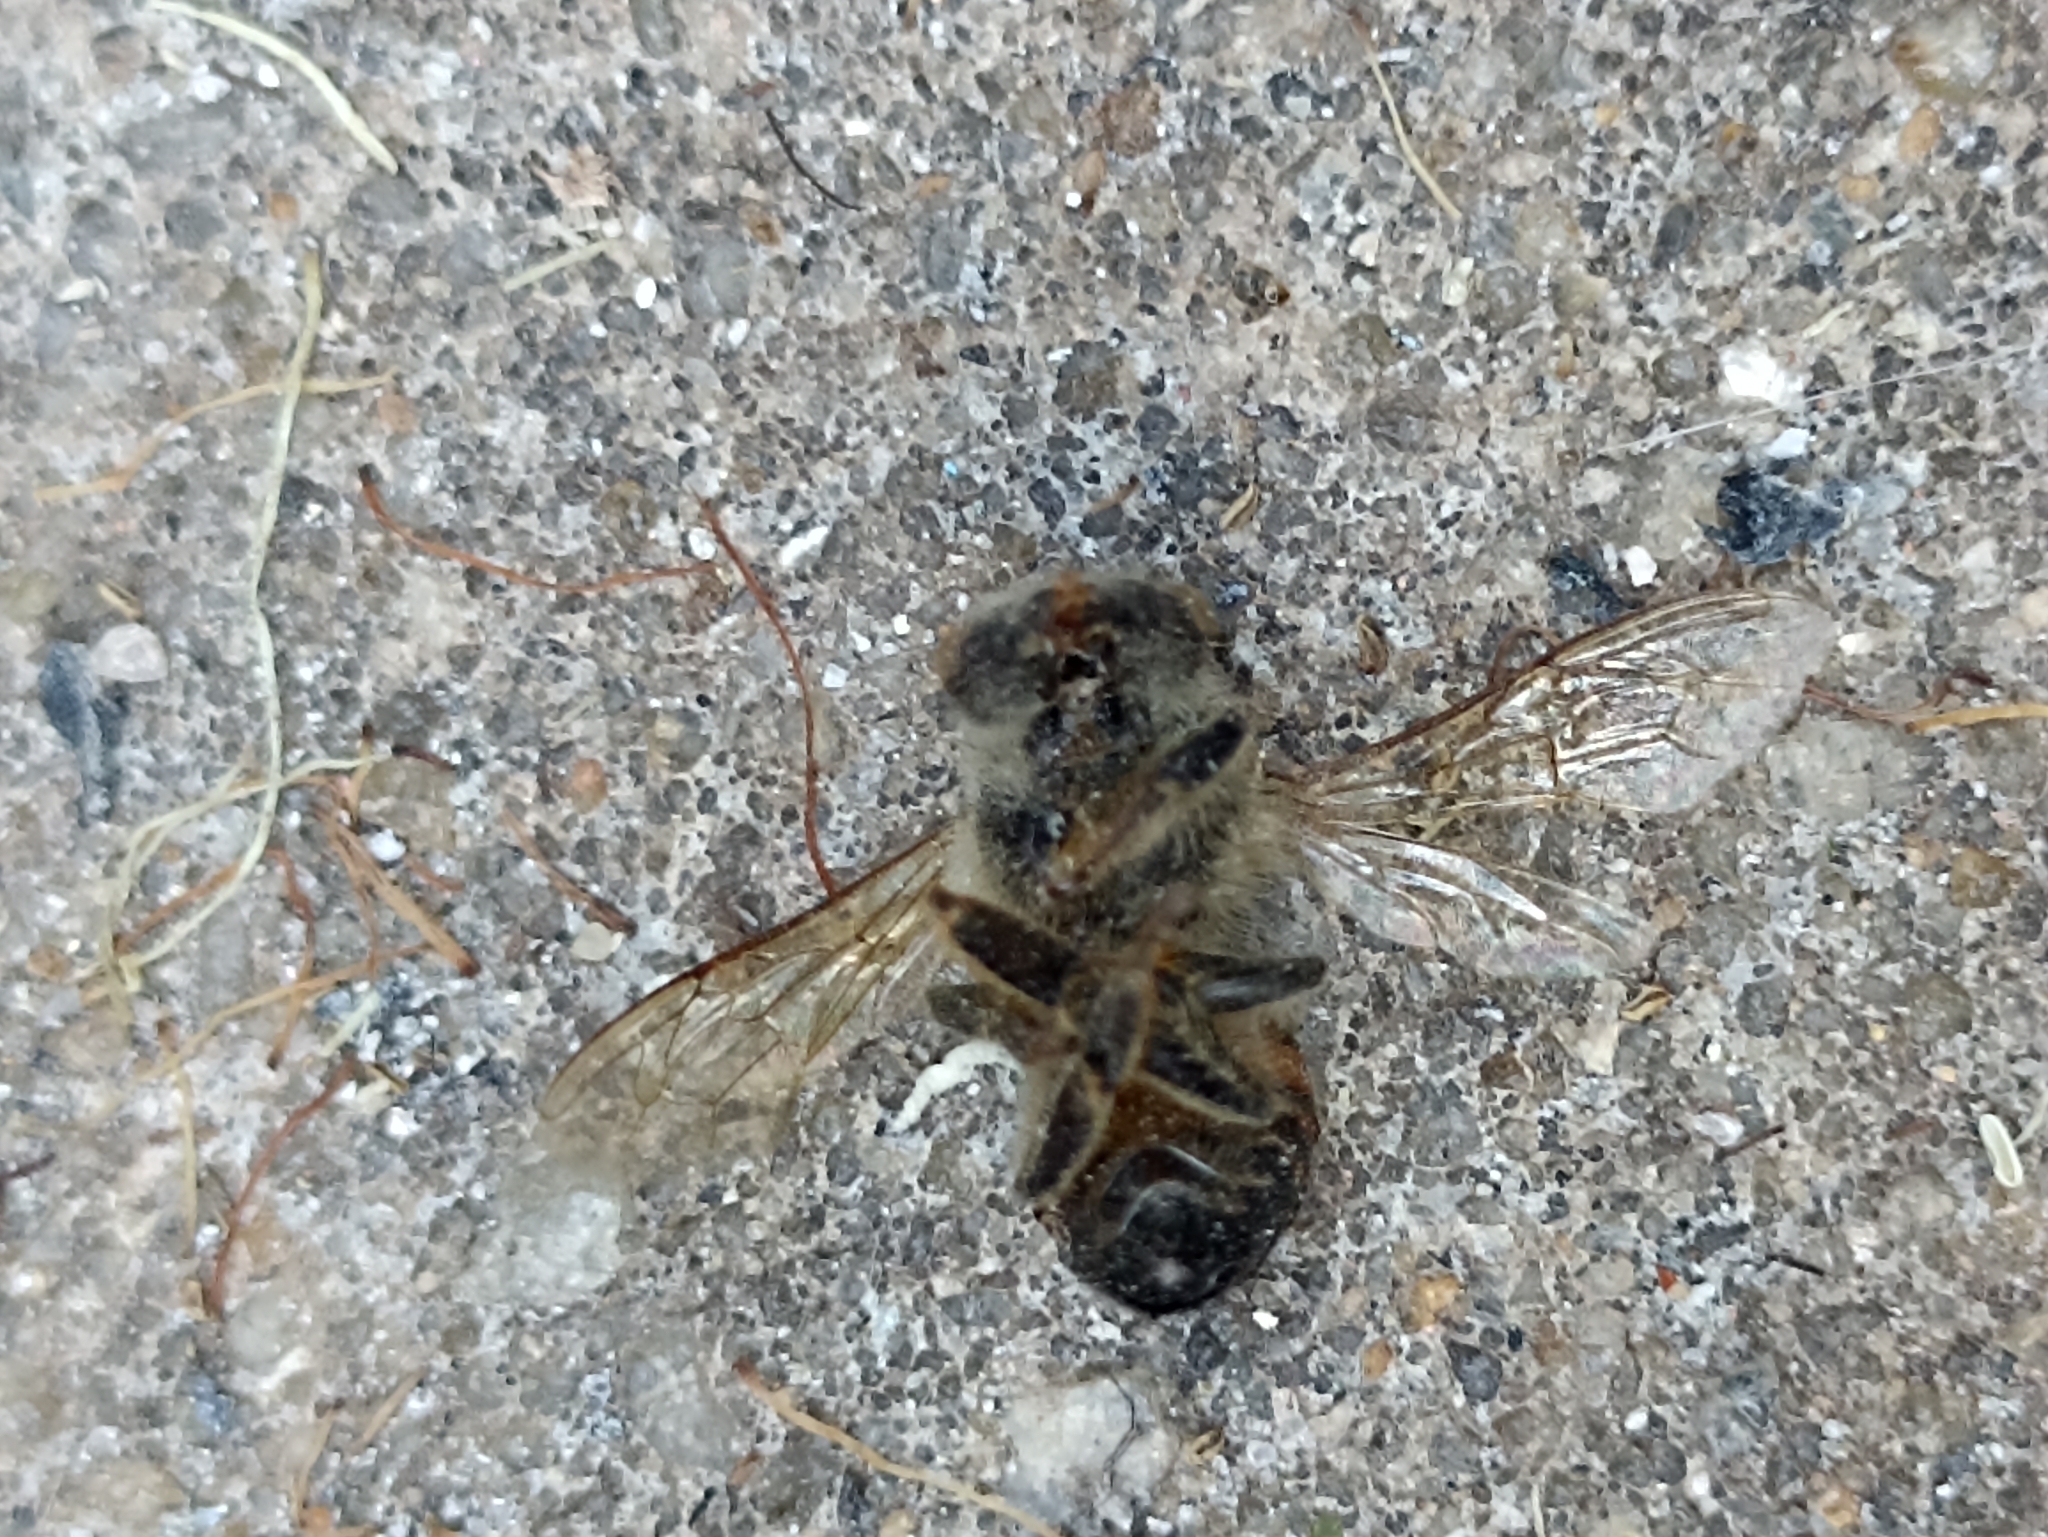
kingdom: Animalia
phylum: Arthropoda
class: Insecta
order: Hymenoptera
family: Apidae
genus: Apis
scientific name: Apis mellifera
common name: Honey bee
